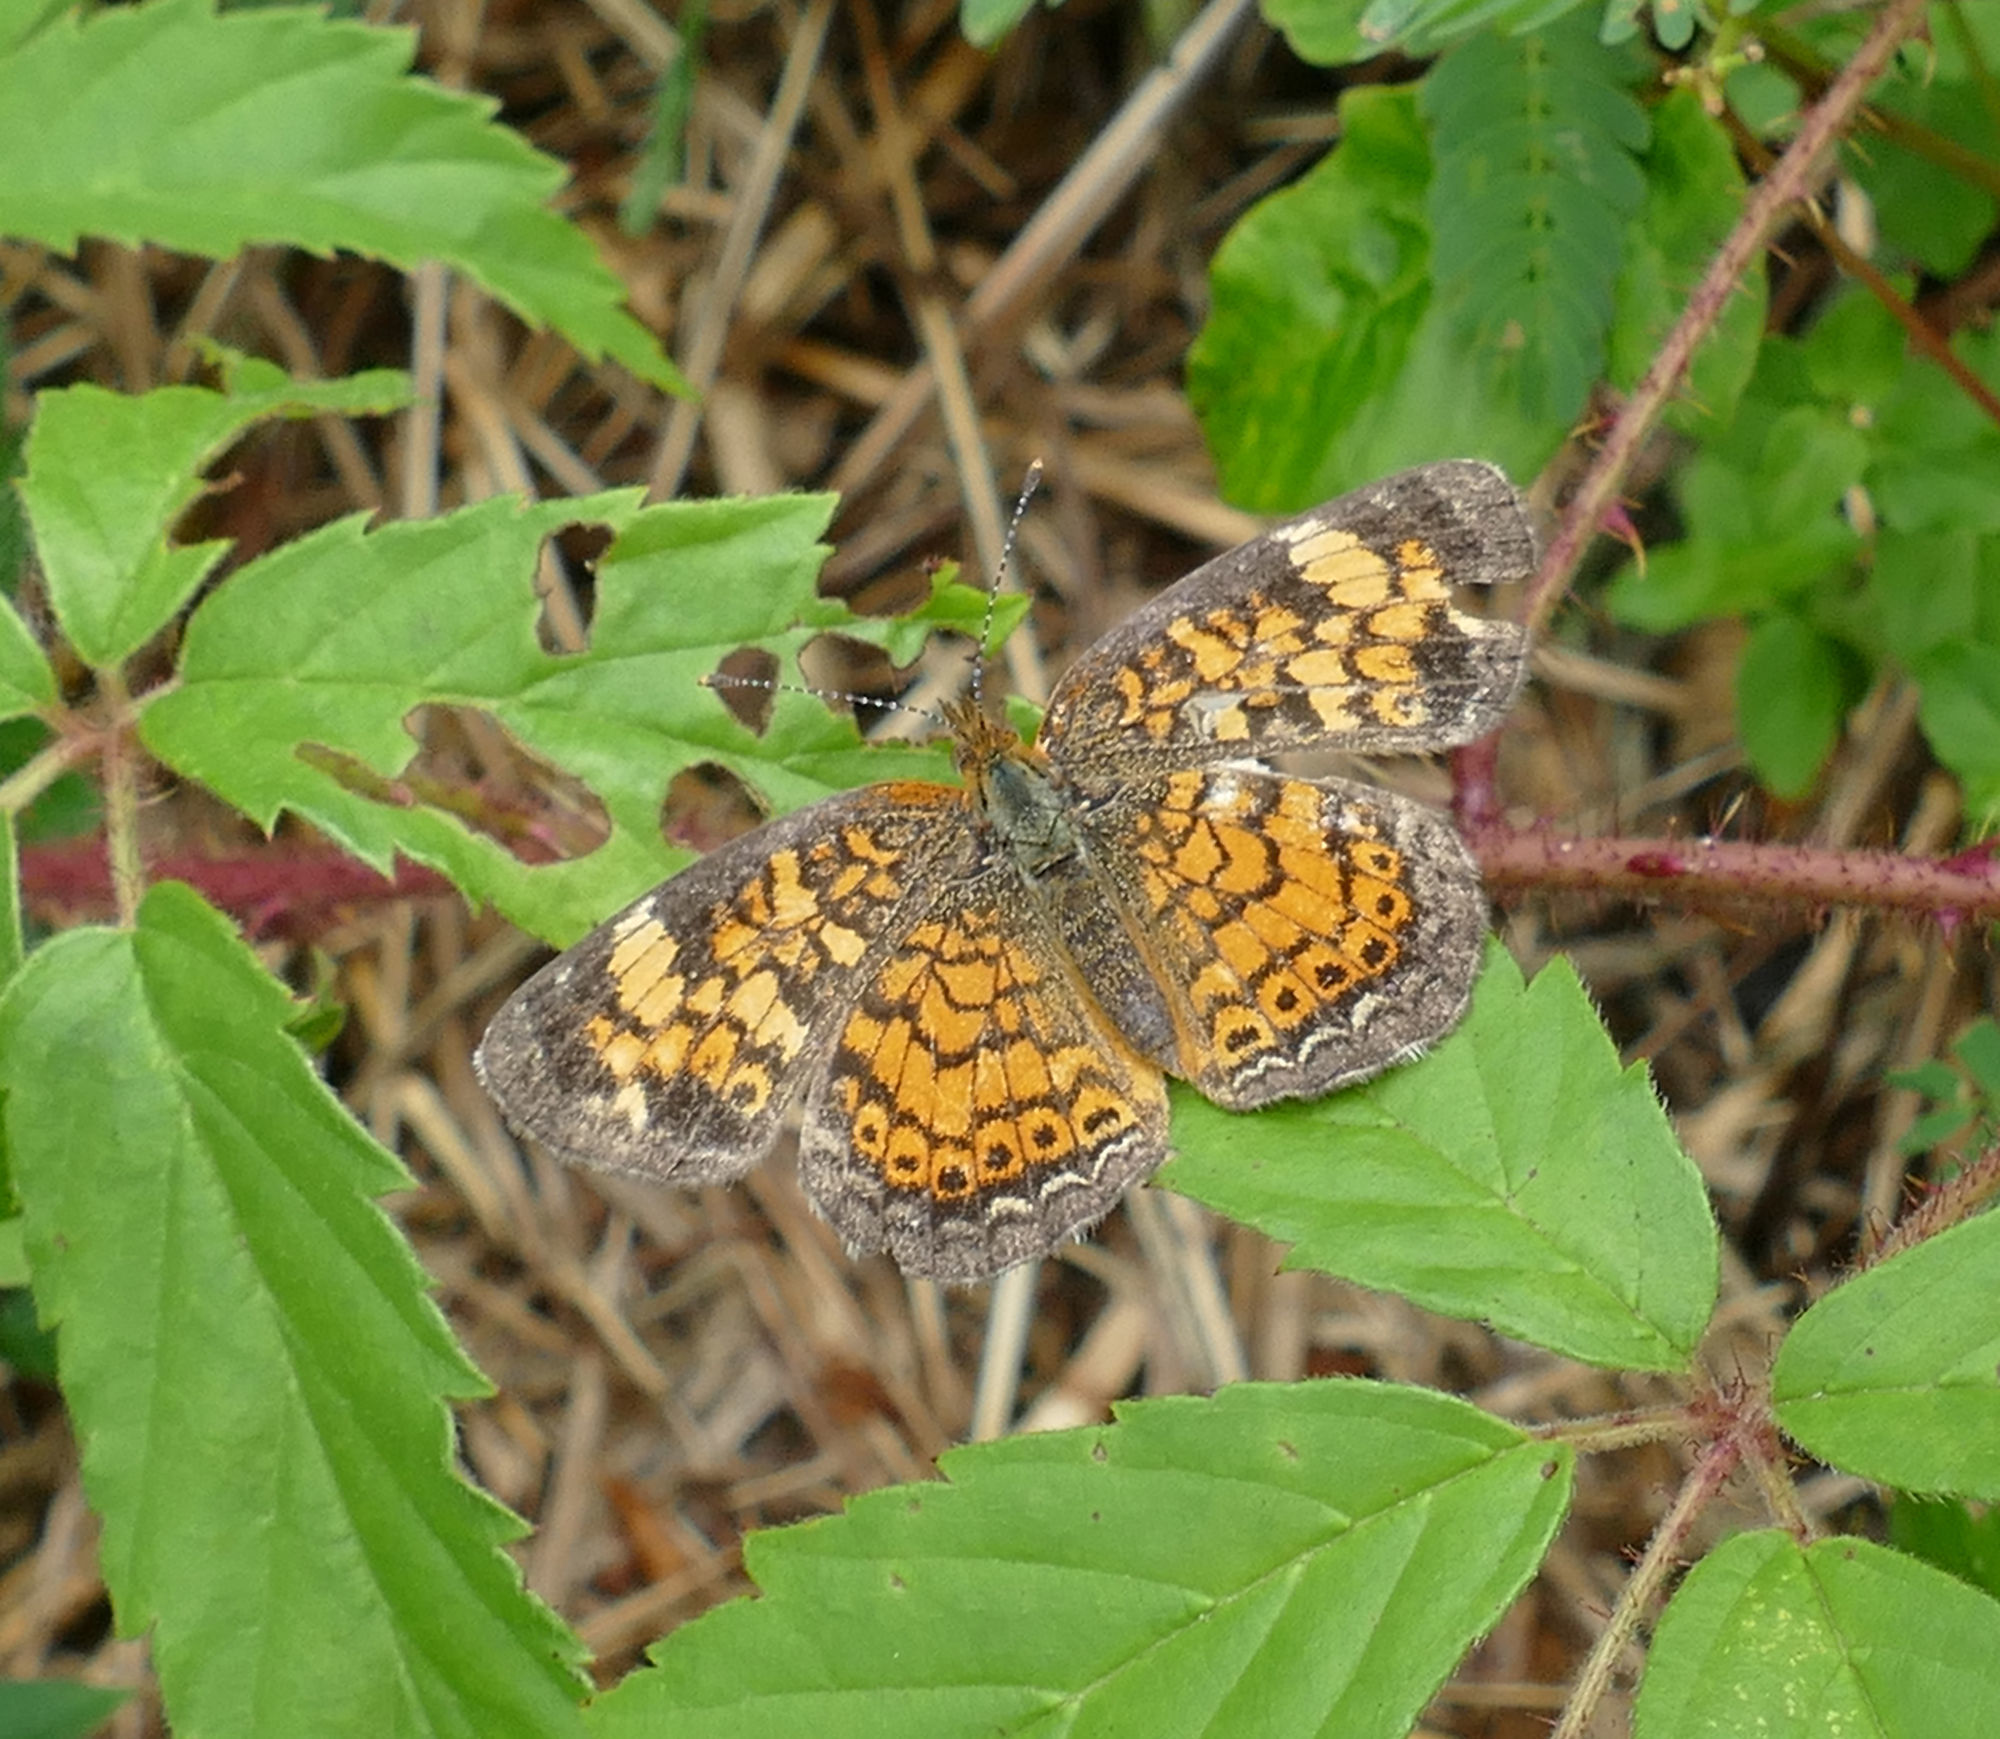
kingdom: Animalia
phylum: Arthropoda
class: Insecta
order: Lepidoptera
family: Nymphalidae
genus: Phyciodes
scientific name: Phyciodes tharos
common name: Pearl crescent
